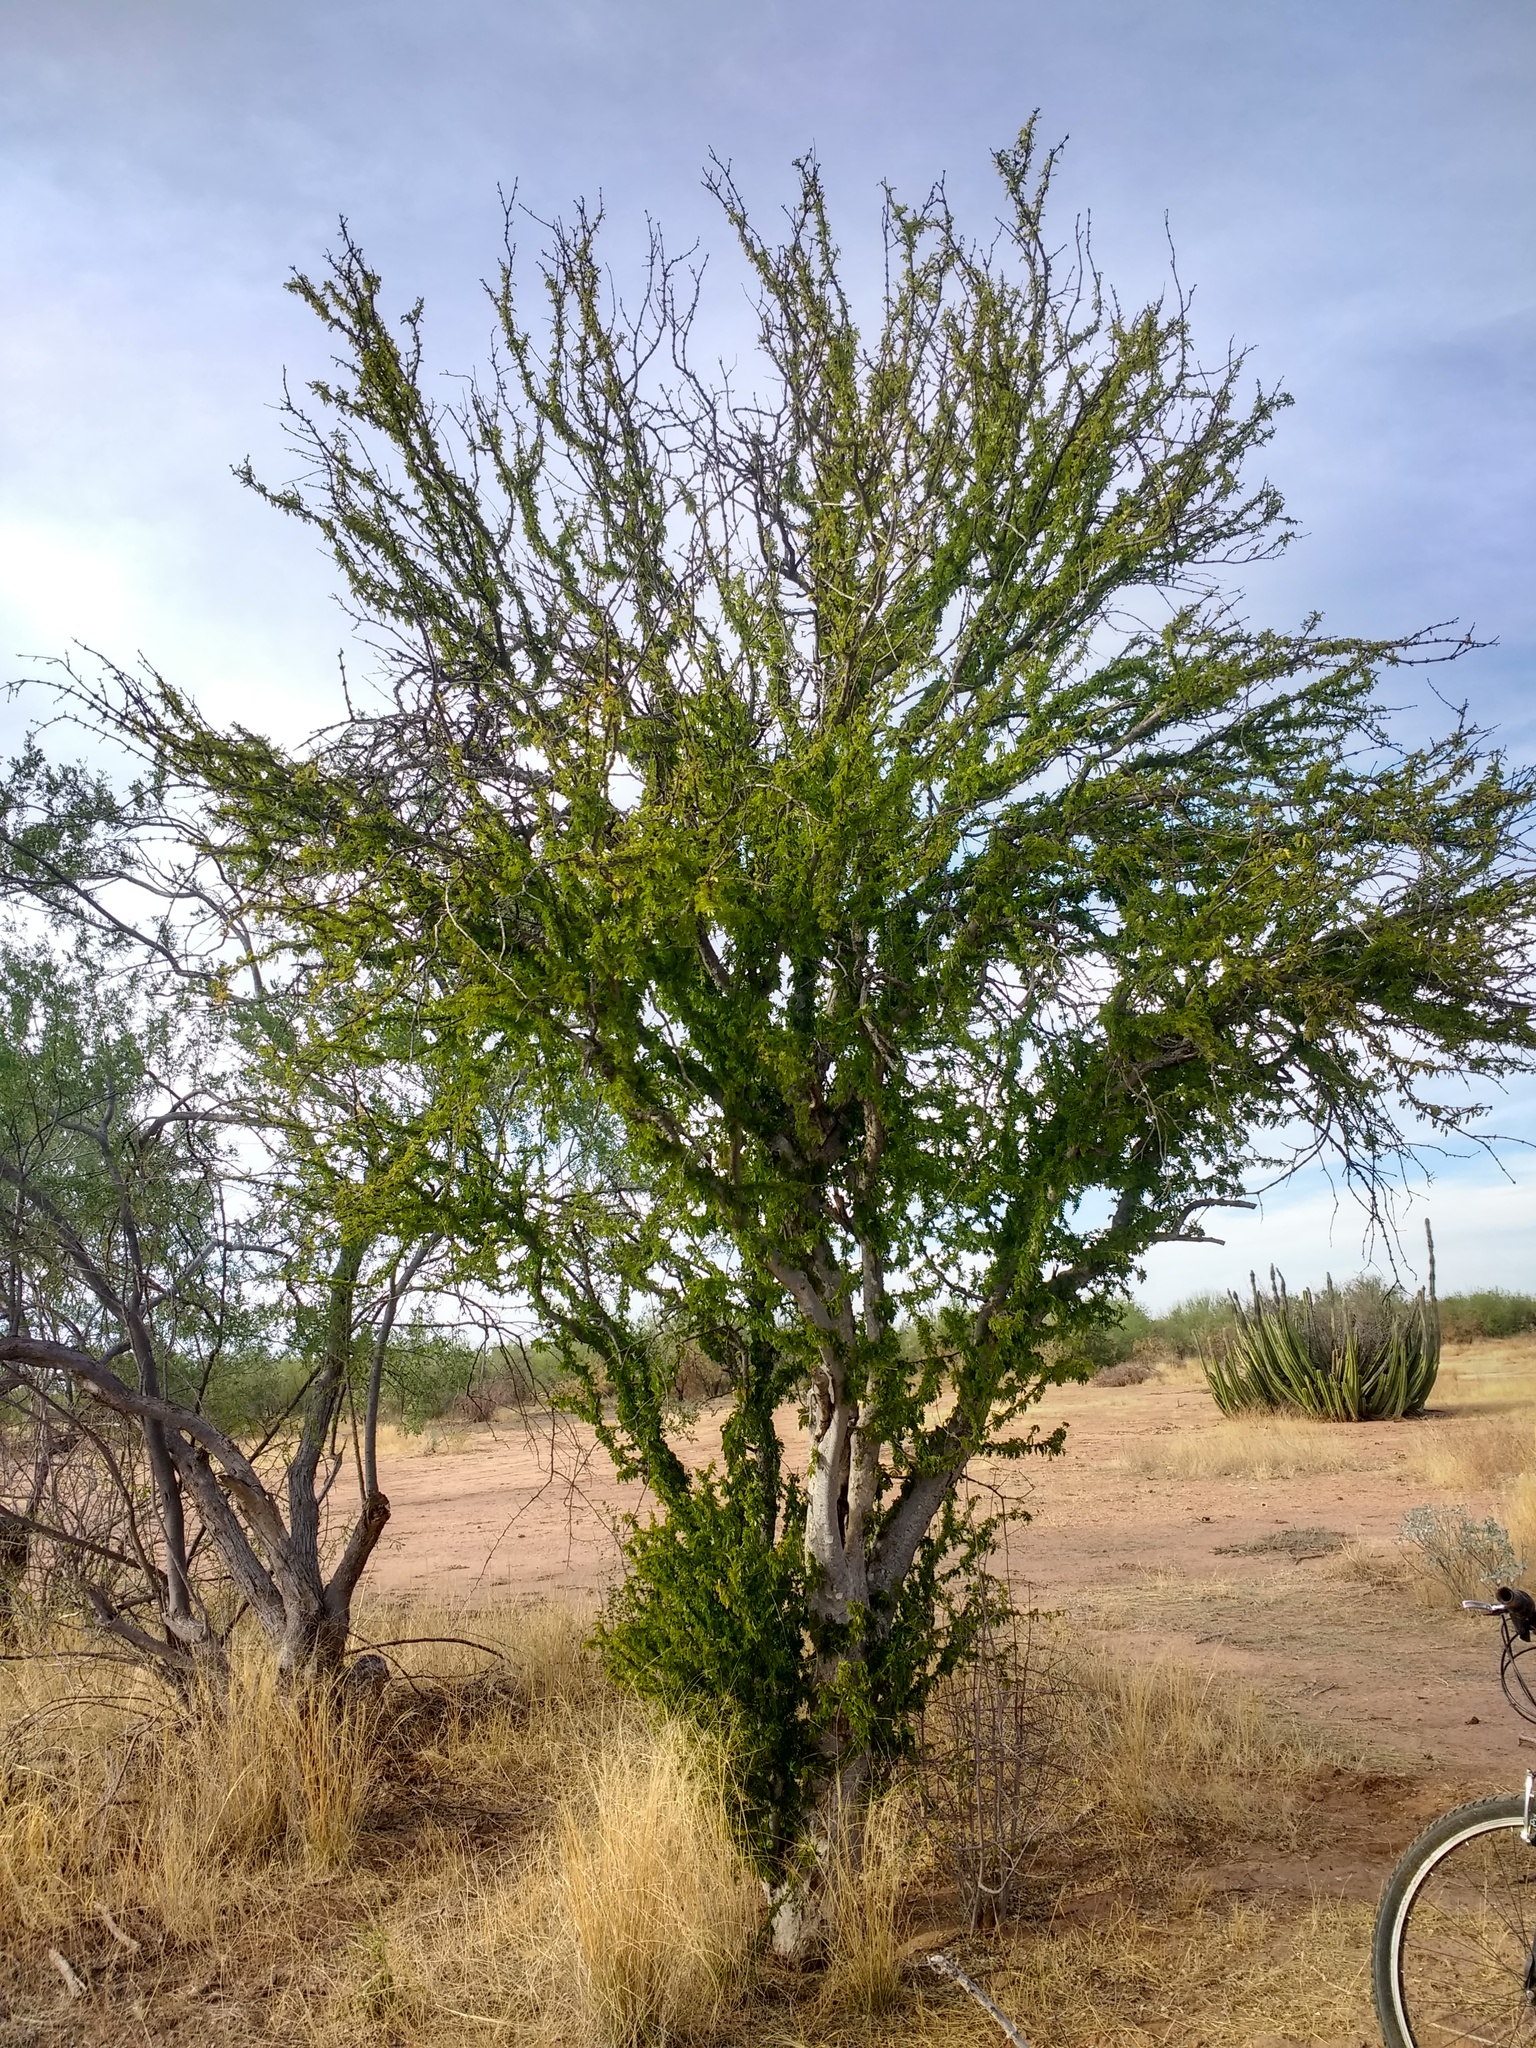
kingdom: Plantae
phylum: Tracheophyta
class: Magnoliopsida
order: Zygophyllales
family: Zygophyllaceae
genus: Guaiacum
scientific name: Guaiacum coulteri
